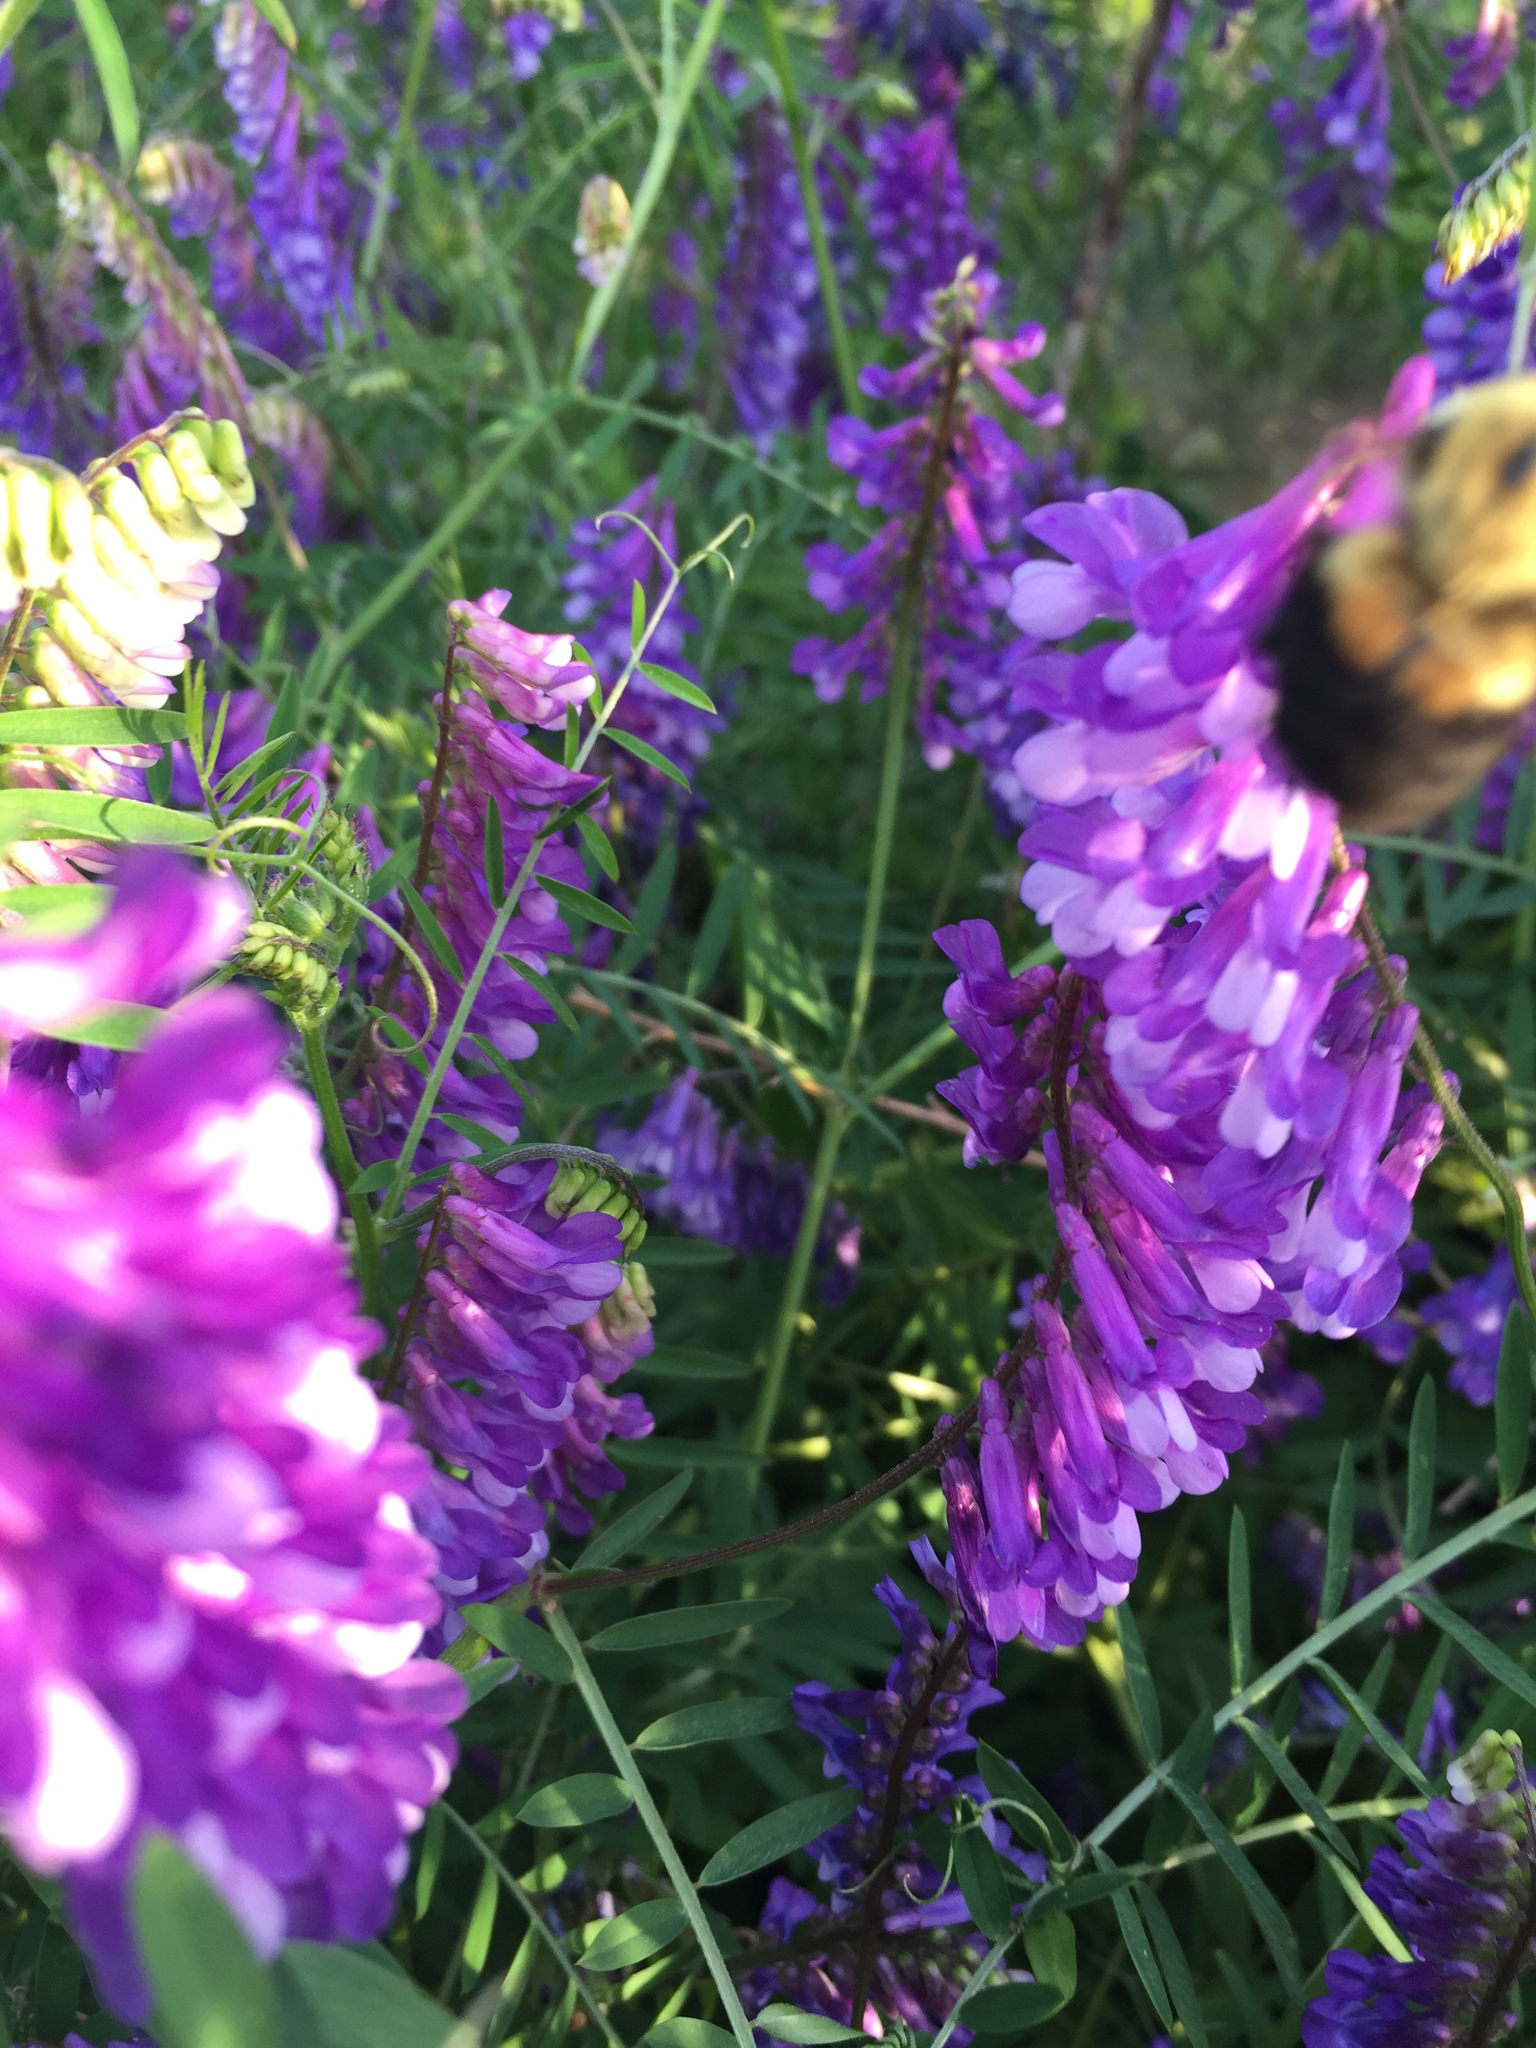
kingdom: Animalia
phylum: Arthropoda
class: Insecta
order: Hymenoptera
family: Apidae
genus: Bombus
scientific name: Bombus griseocollis
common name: Brown-belted bumble bee
